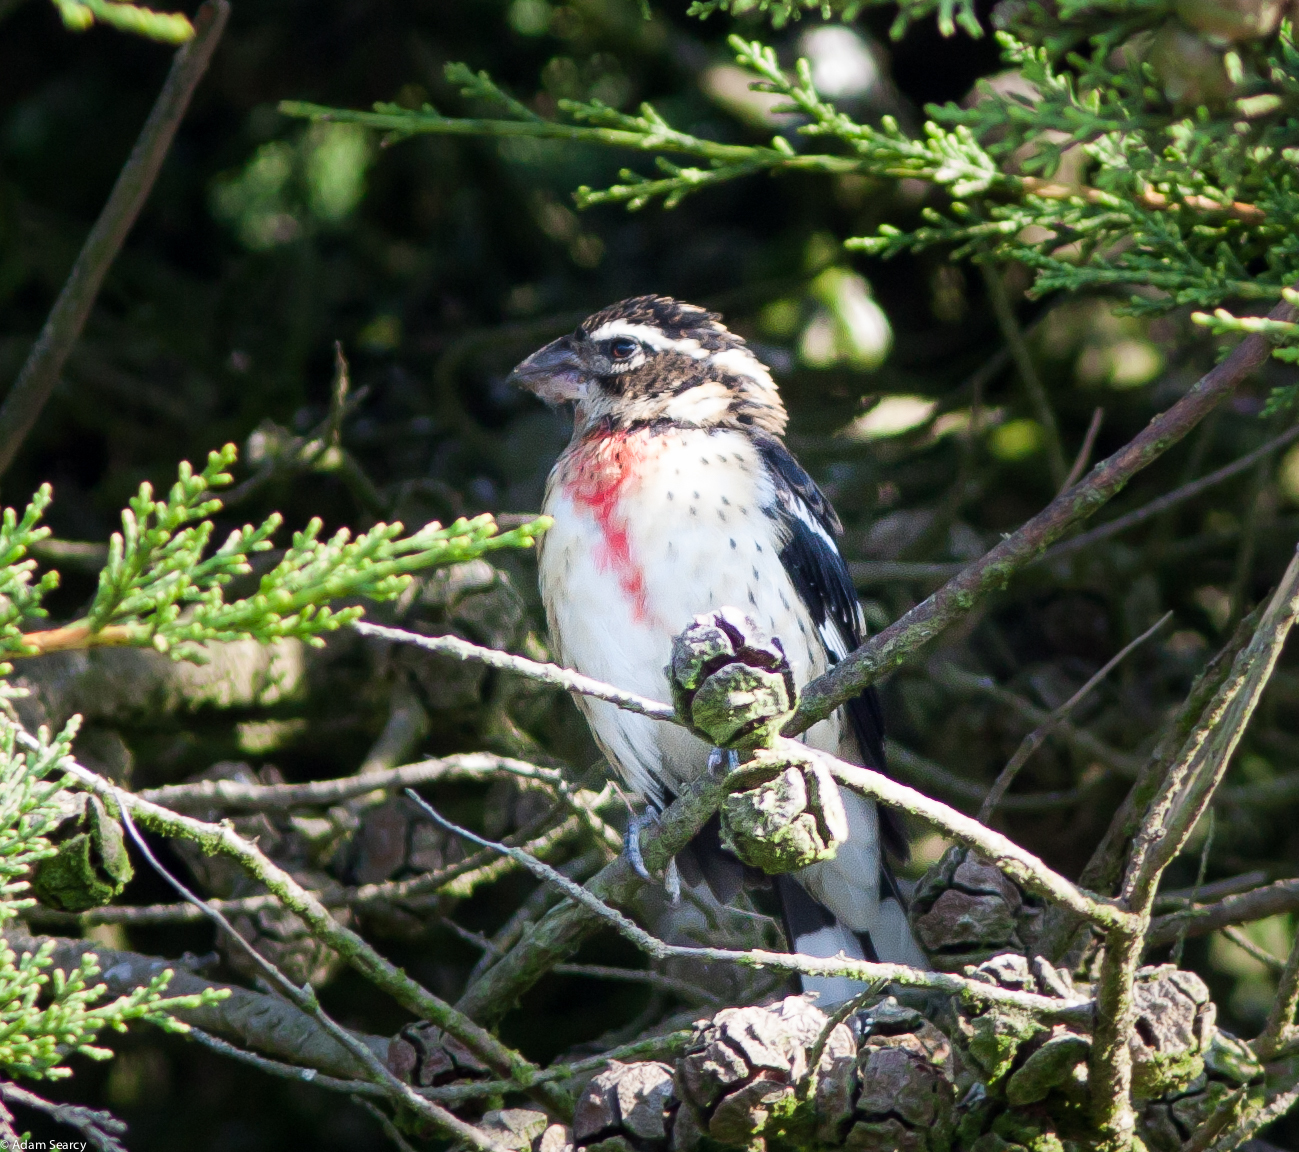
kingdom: Animalia
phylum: Chordata
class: Aves
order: Passeriformes
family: Cardinalidae
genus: Pheucticus
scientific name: Pheucticus ludovicianus
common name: Rose-breasted grosbeak
